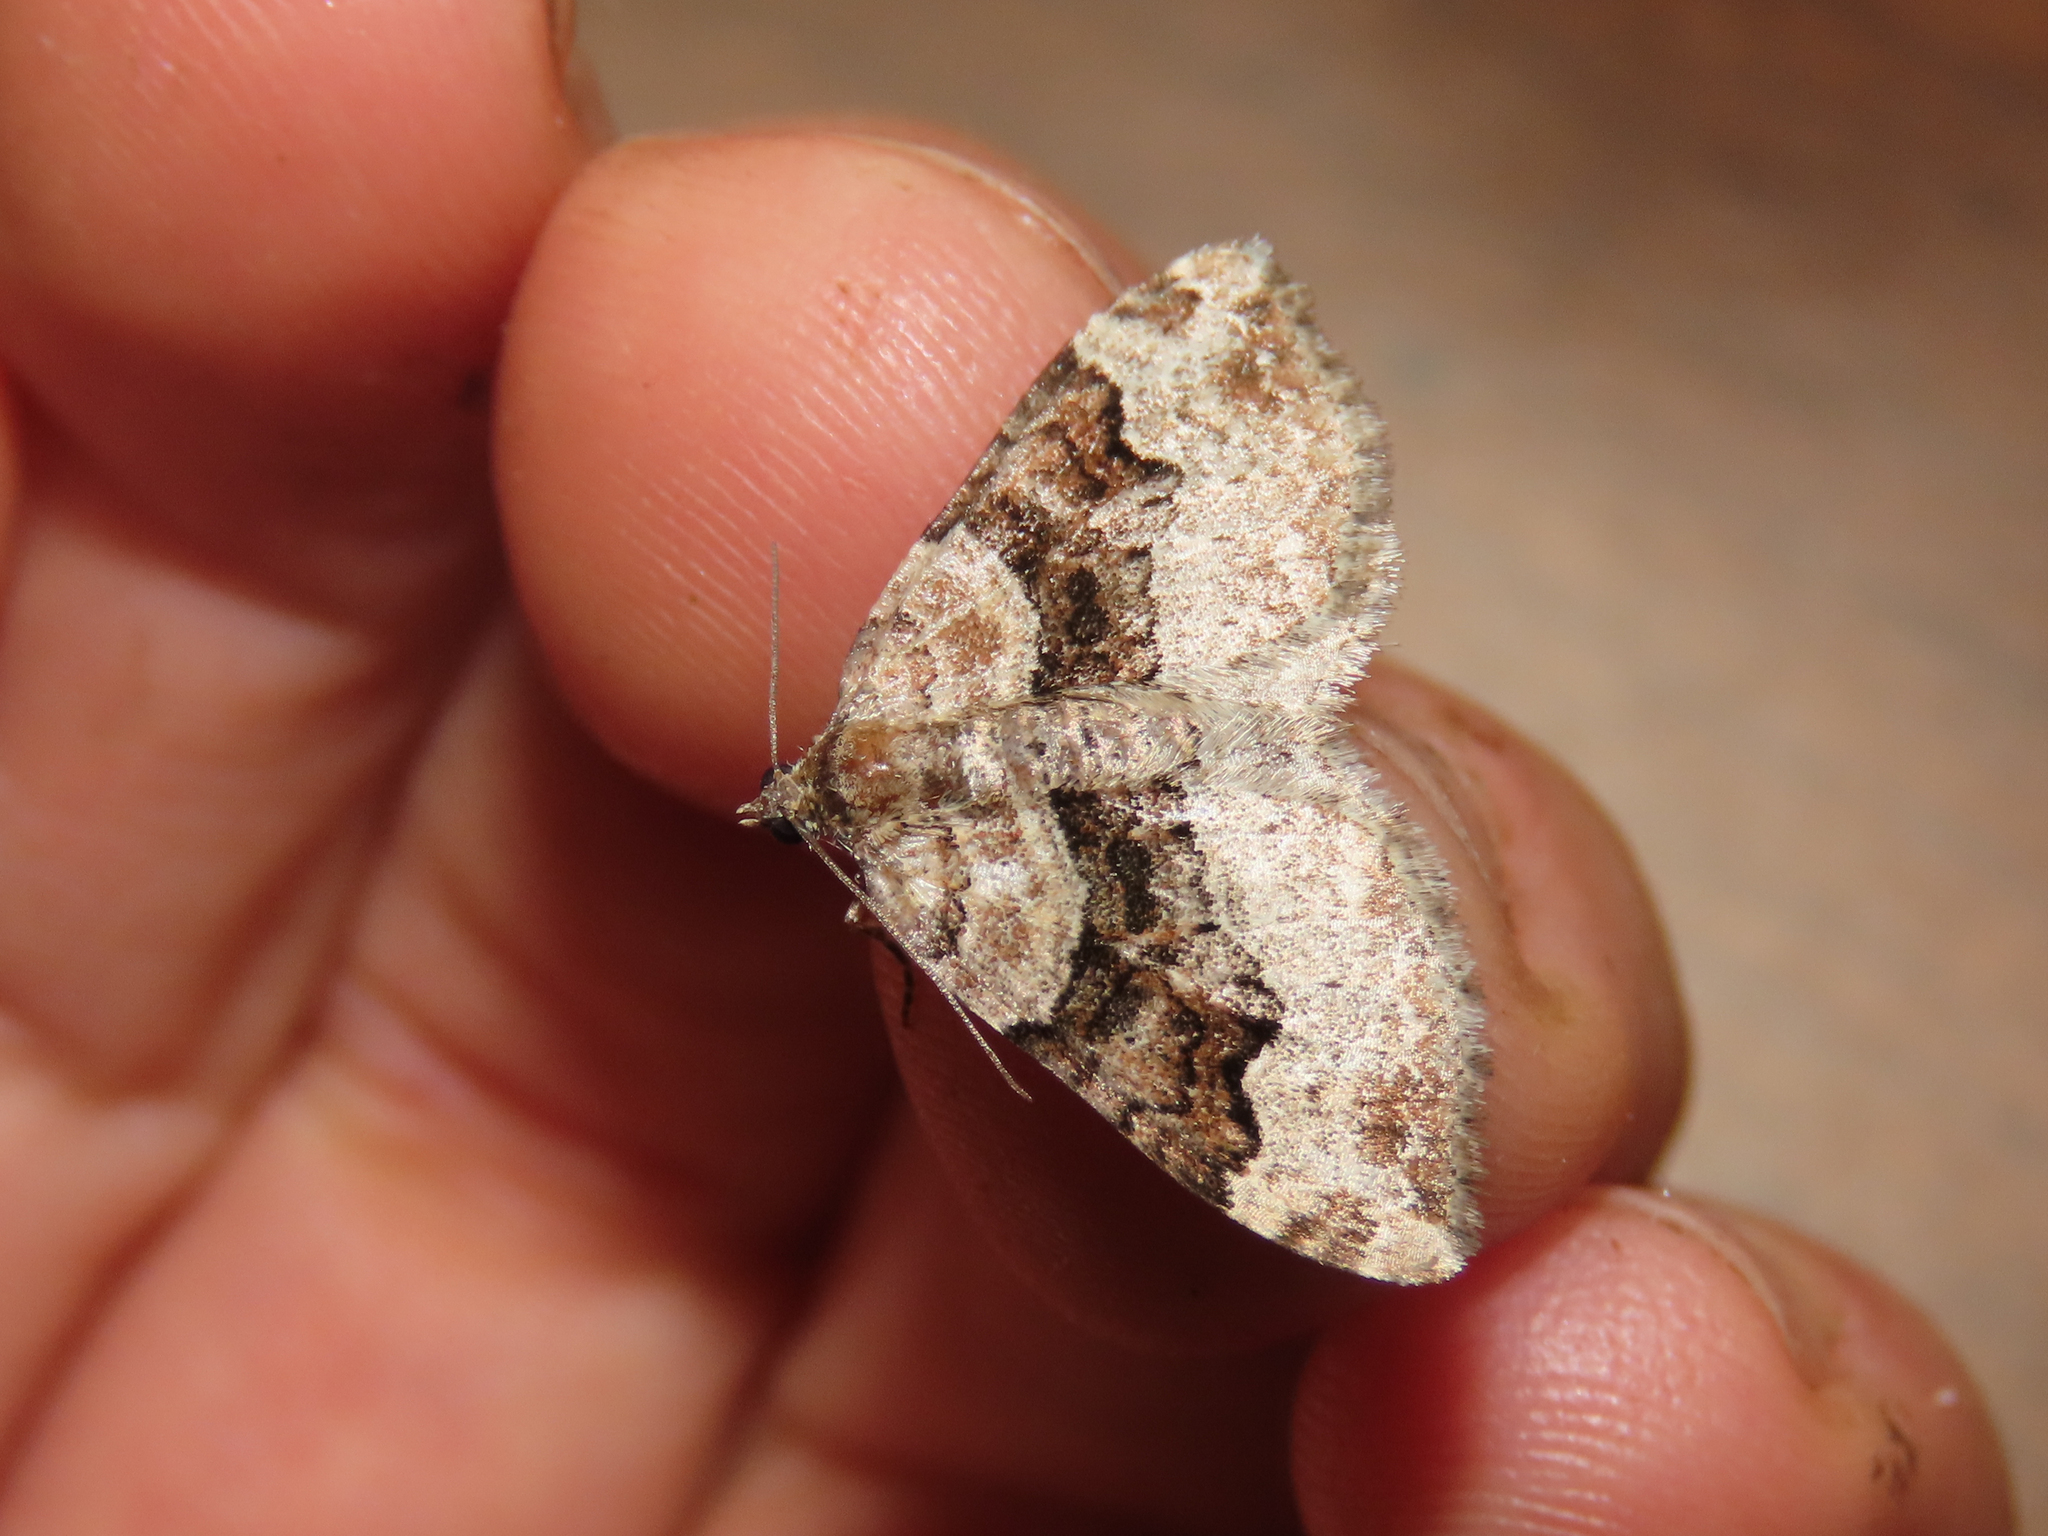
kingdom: Animalia
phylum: Arthropoda
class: Insecta
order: Lepidoptera
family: Geometridae
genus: Xanthorhoe
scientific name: Xanthorhoe lacustrata
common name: Toothed brown carpet
